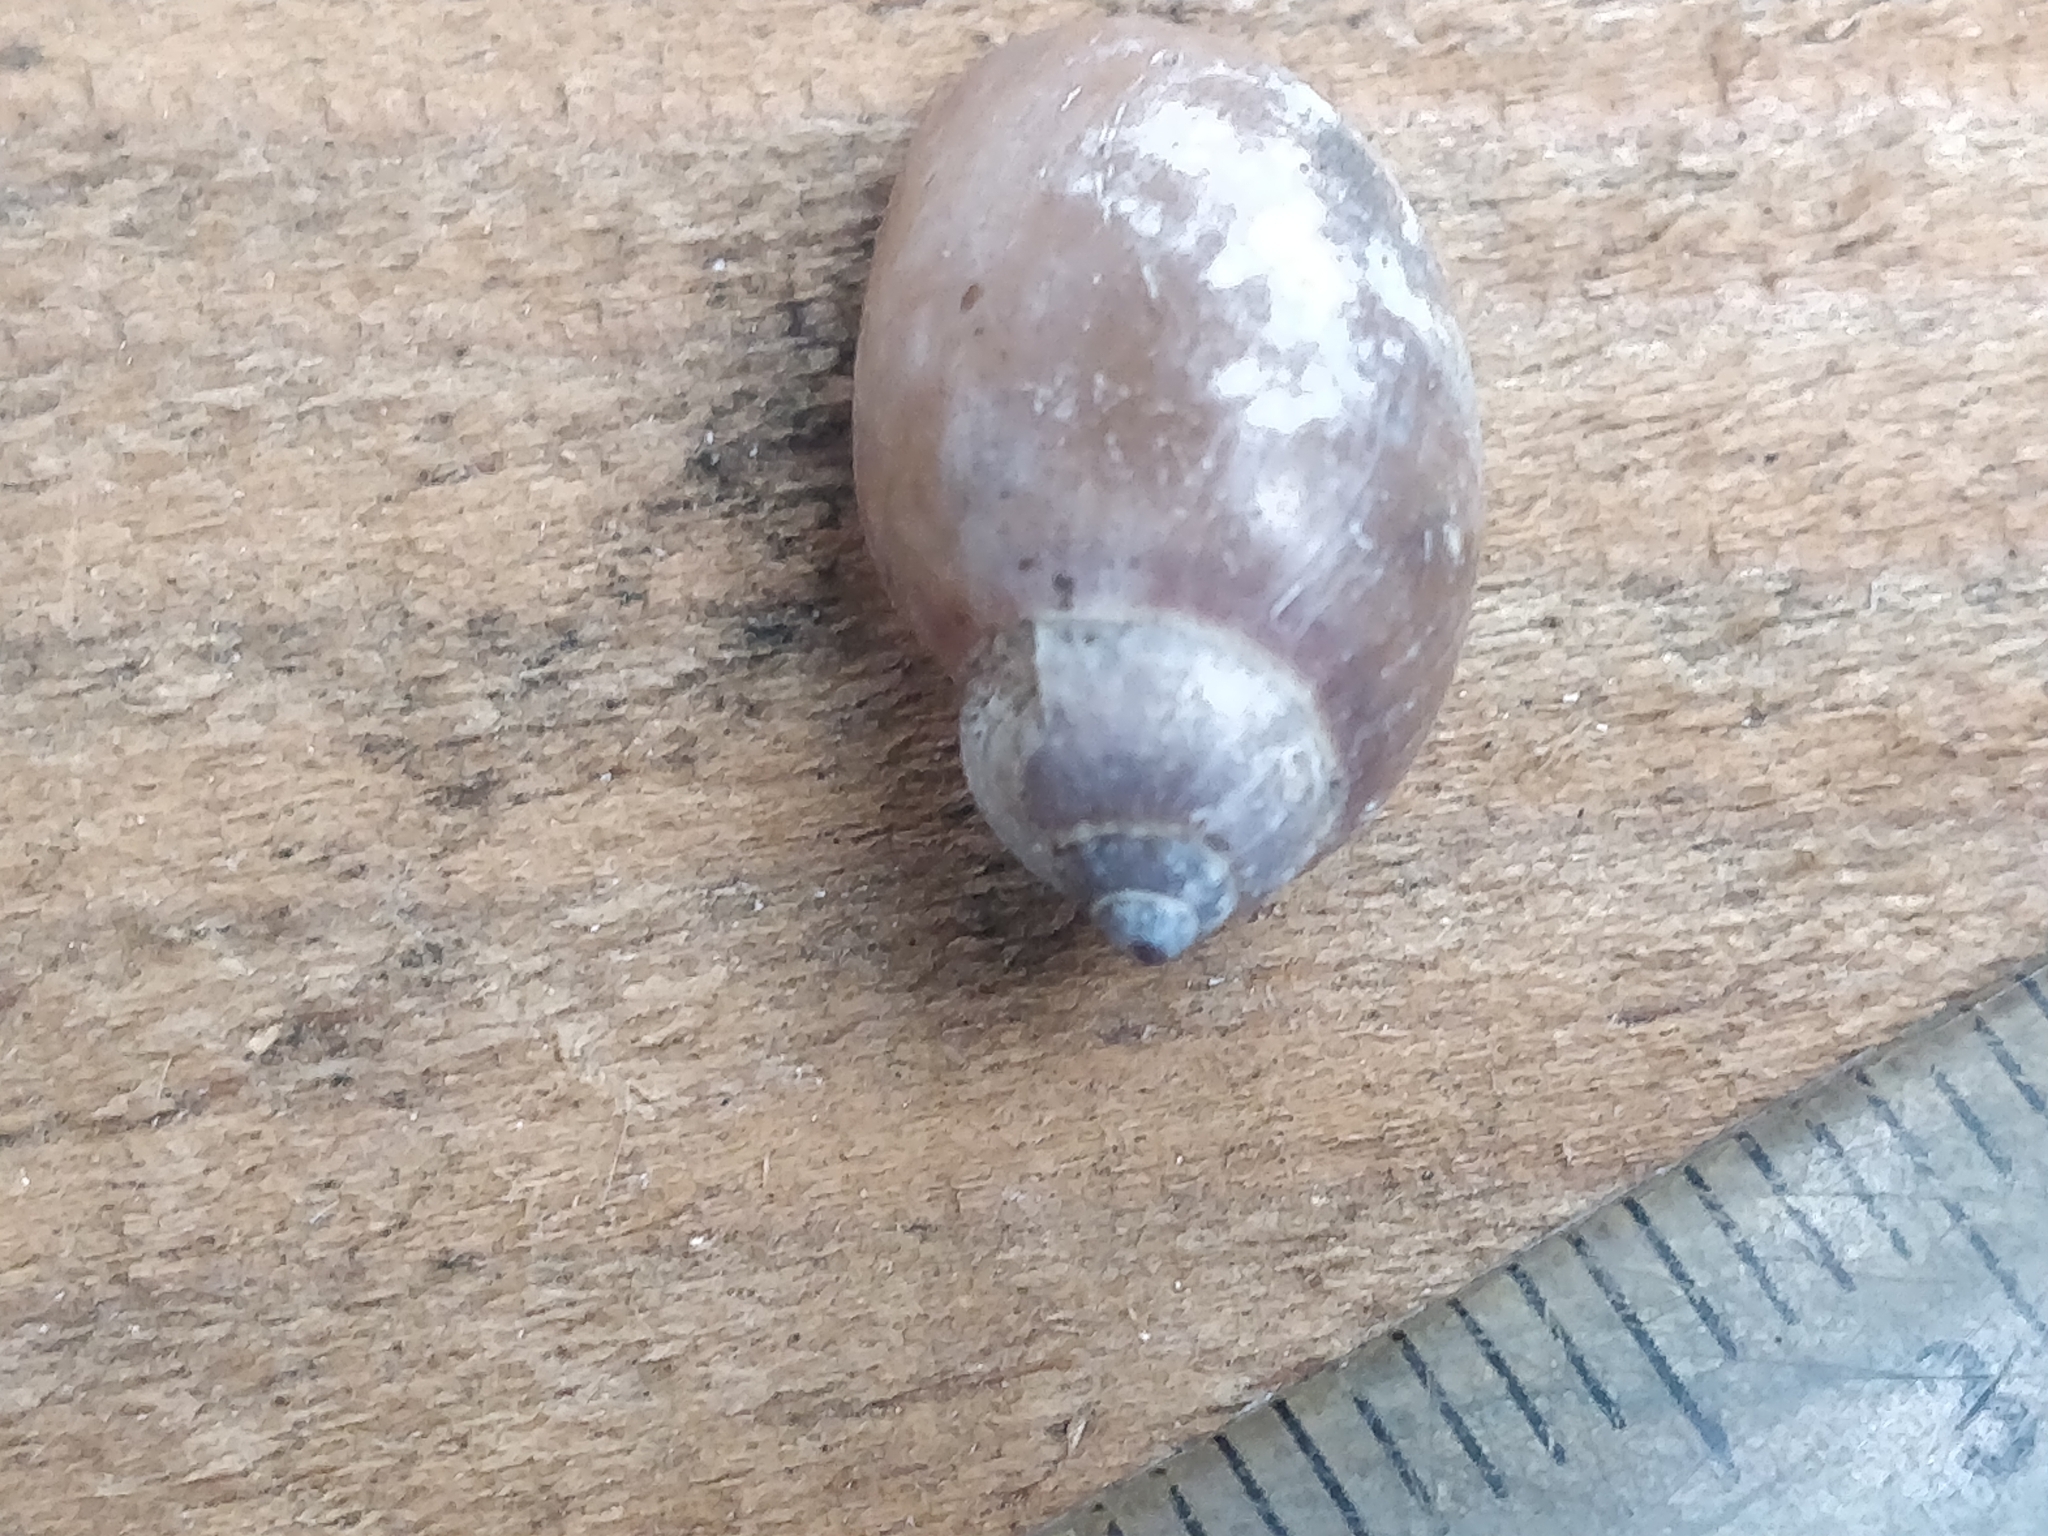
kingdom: Animalia
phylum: Mollusca
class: Gastropoda
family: Physidae
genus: Physella
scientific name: Physella
